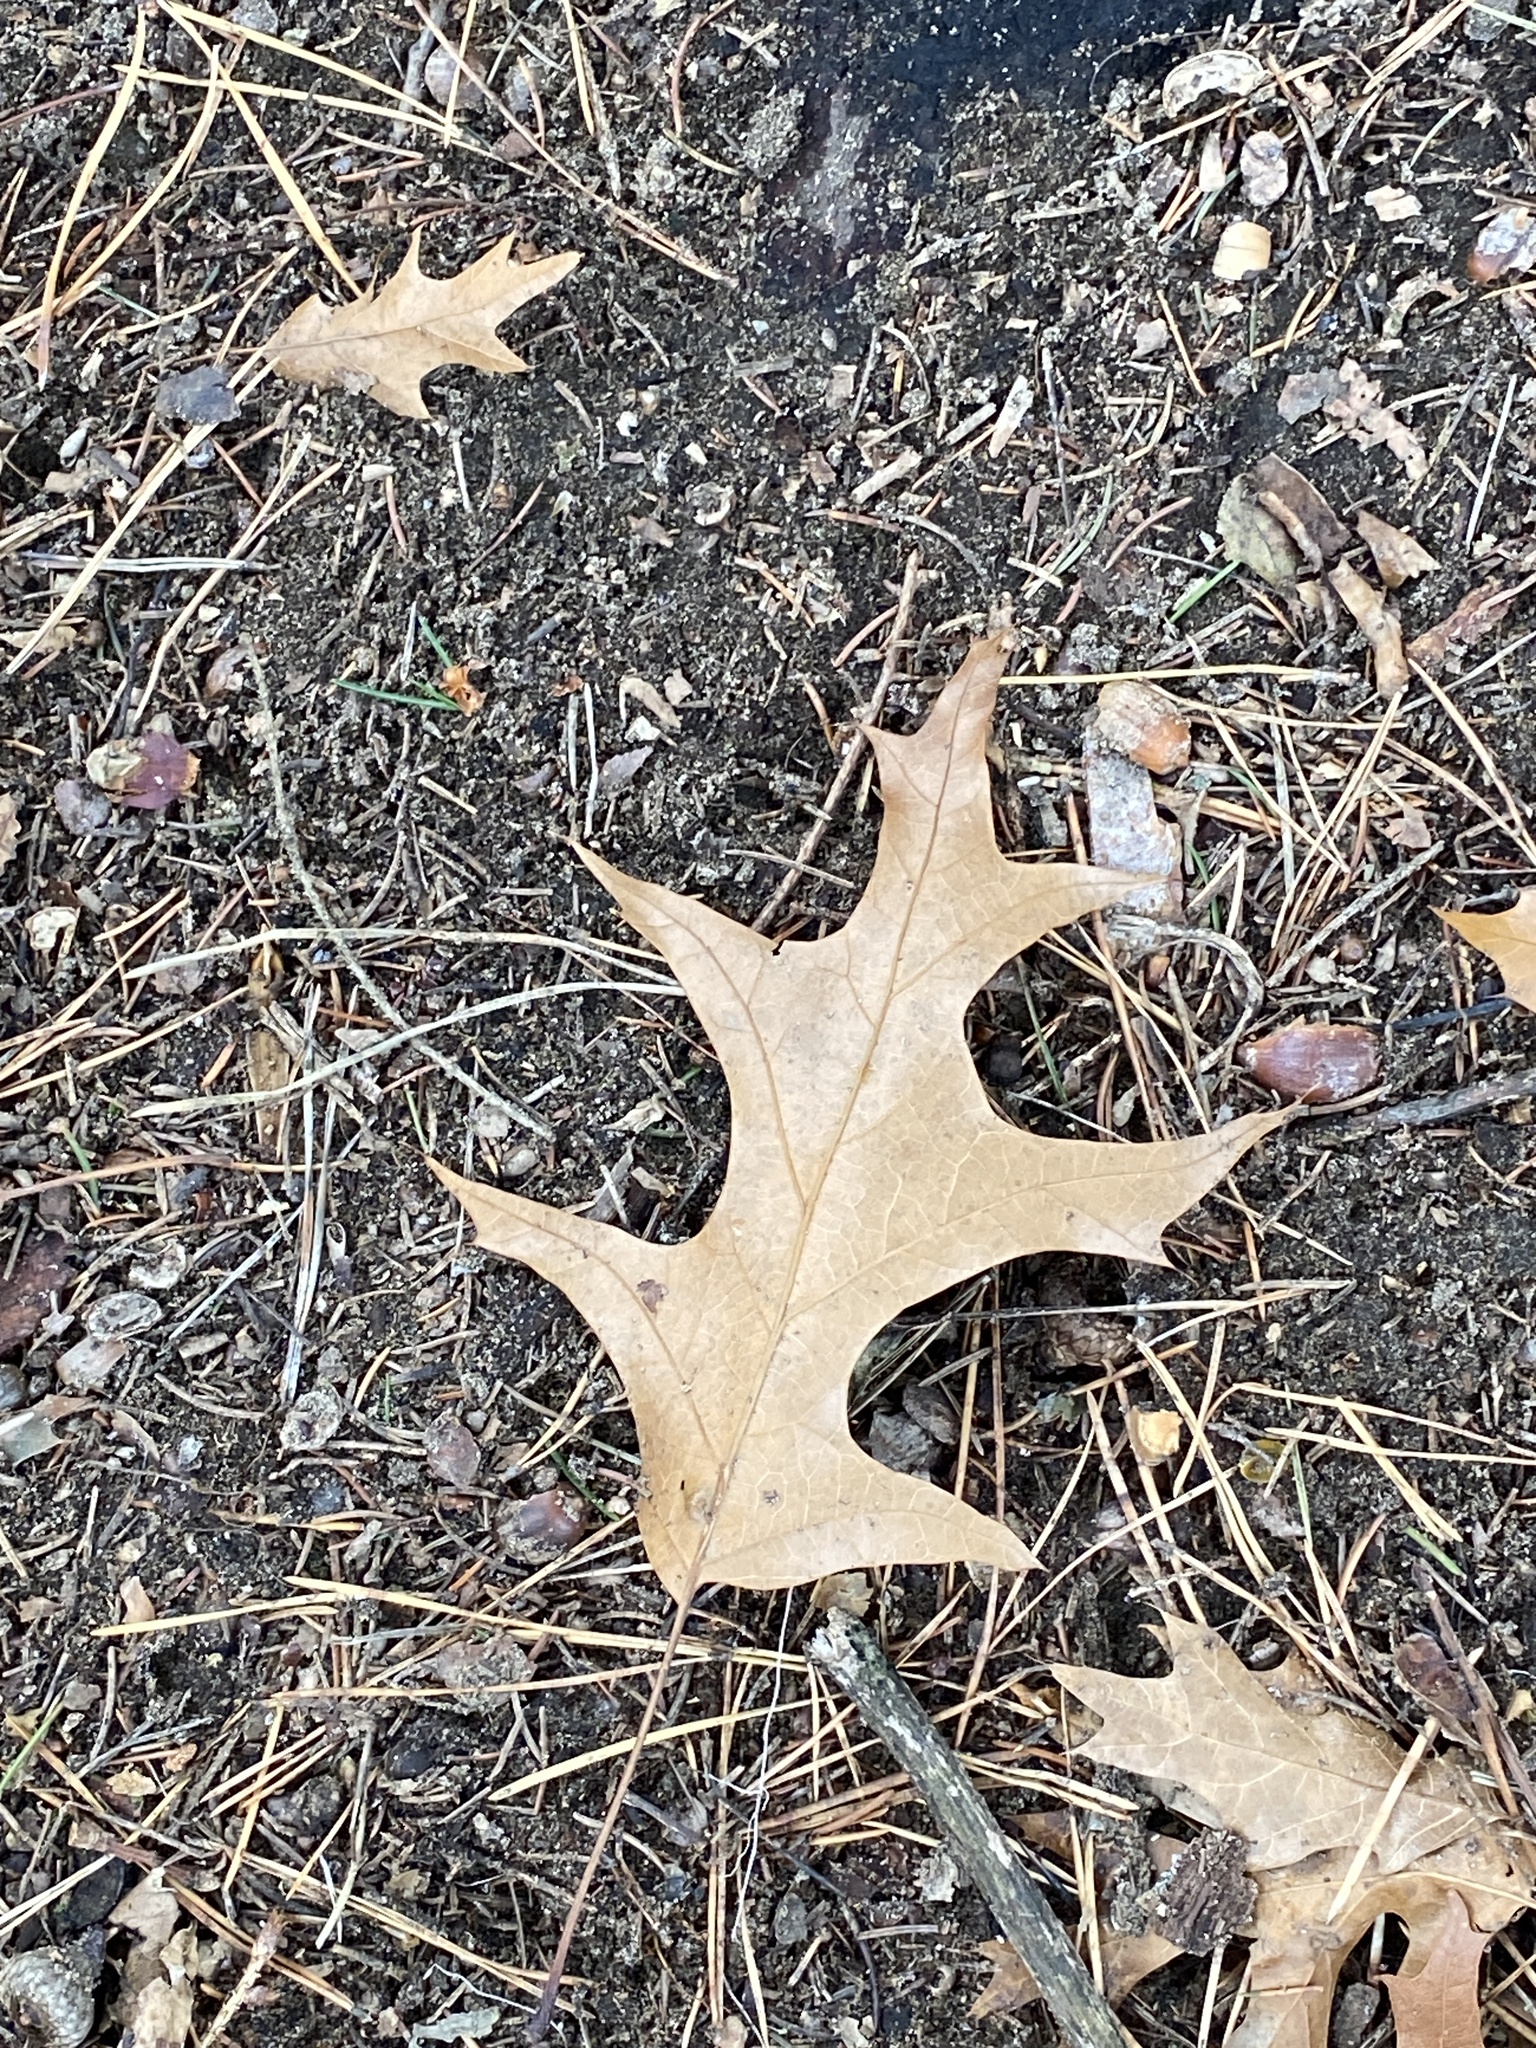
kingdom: Plantae
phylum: Tracheophyta
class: Magnoliopsida
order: Fagales
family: Fagaceae
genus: Quercus
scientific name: Quercus rubra
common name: Red oak
